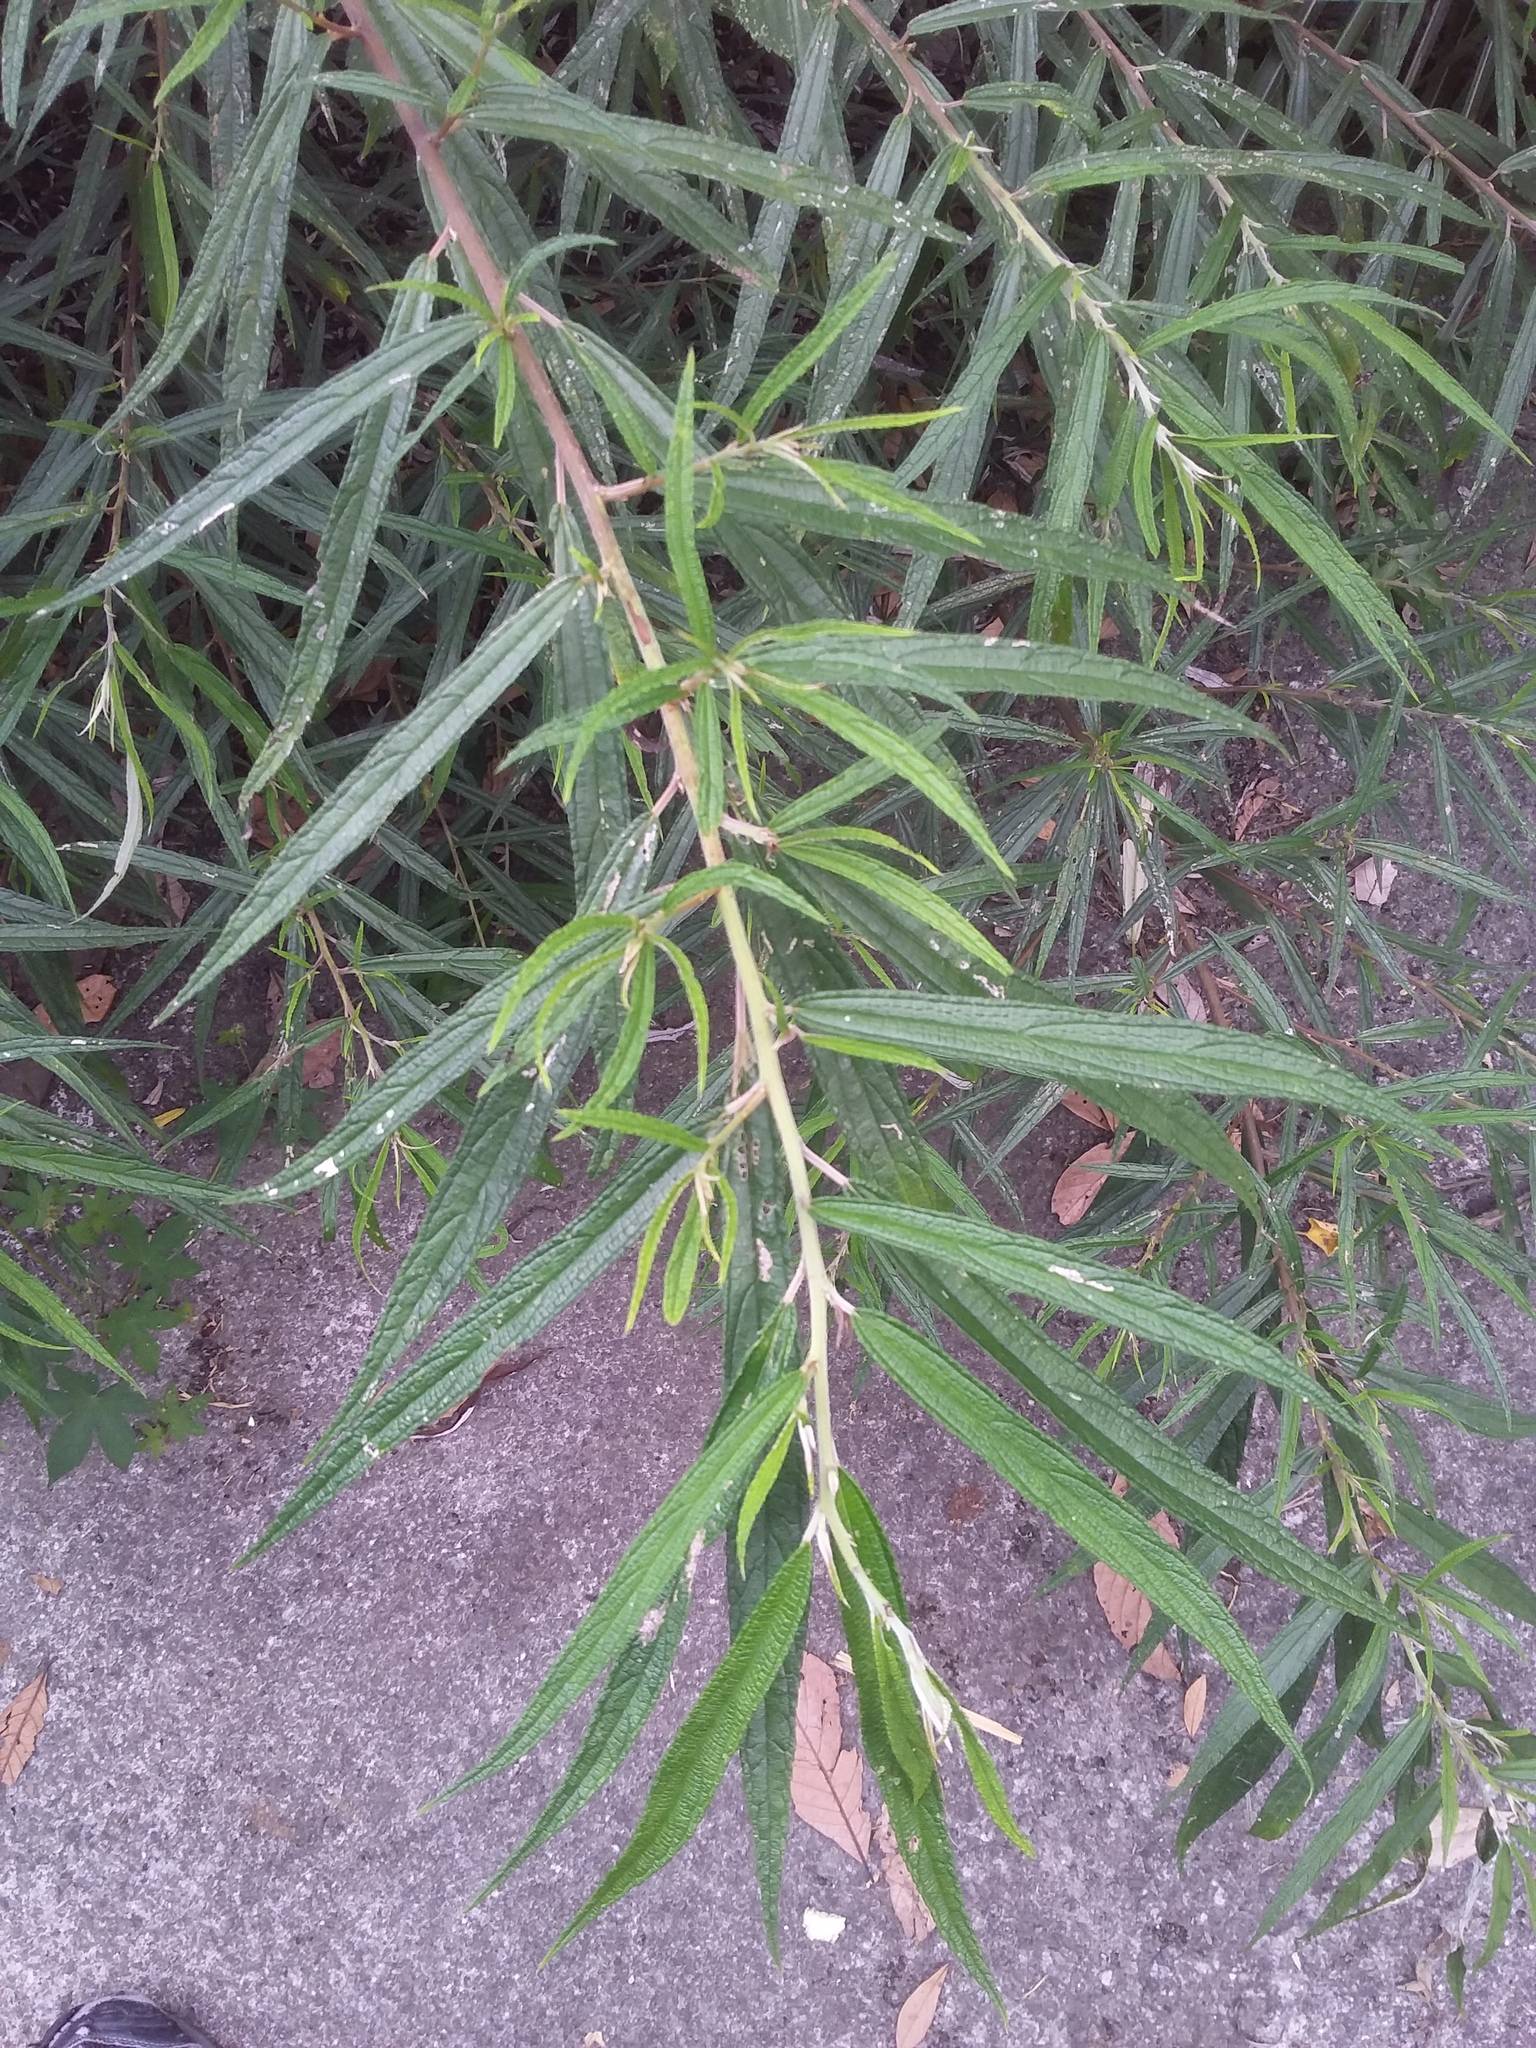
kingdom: Plantae
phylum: Tracheophyta
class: Magnoliopsida
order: Rosales
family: Urticaceae
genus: Debregeasia
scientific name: Debregeasia orientalis
